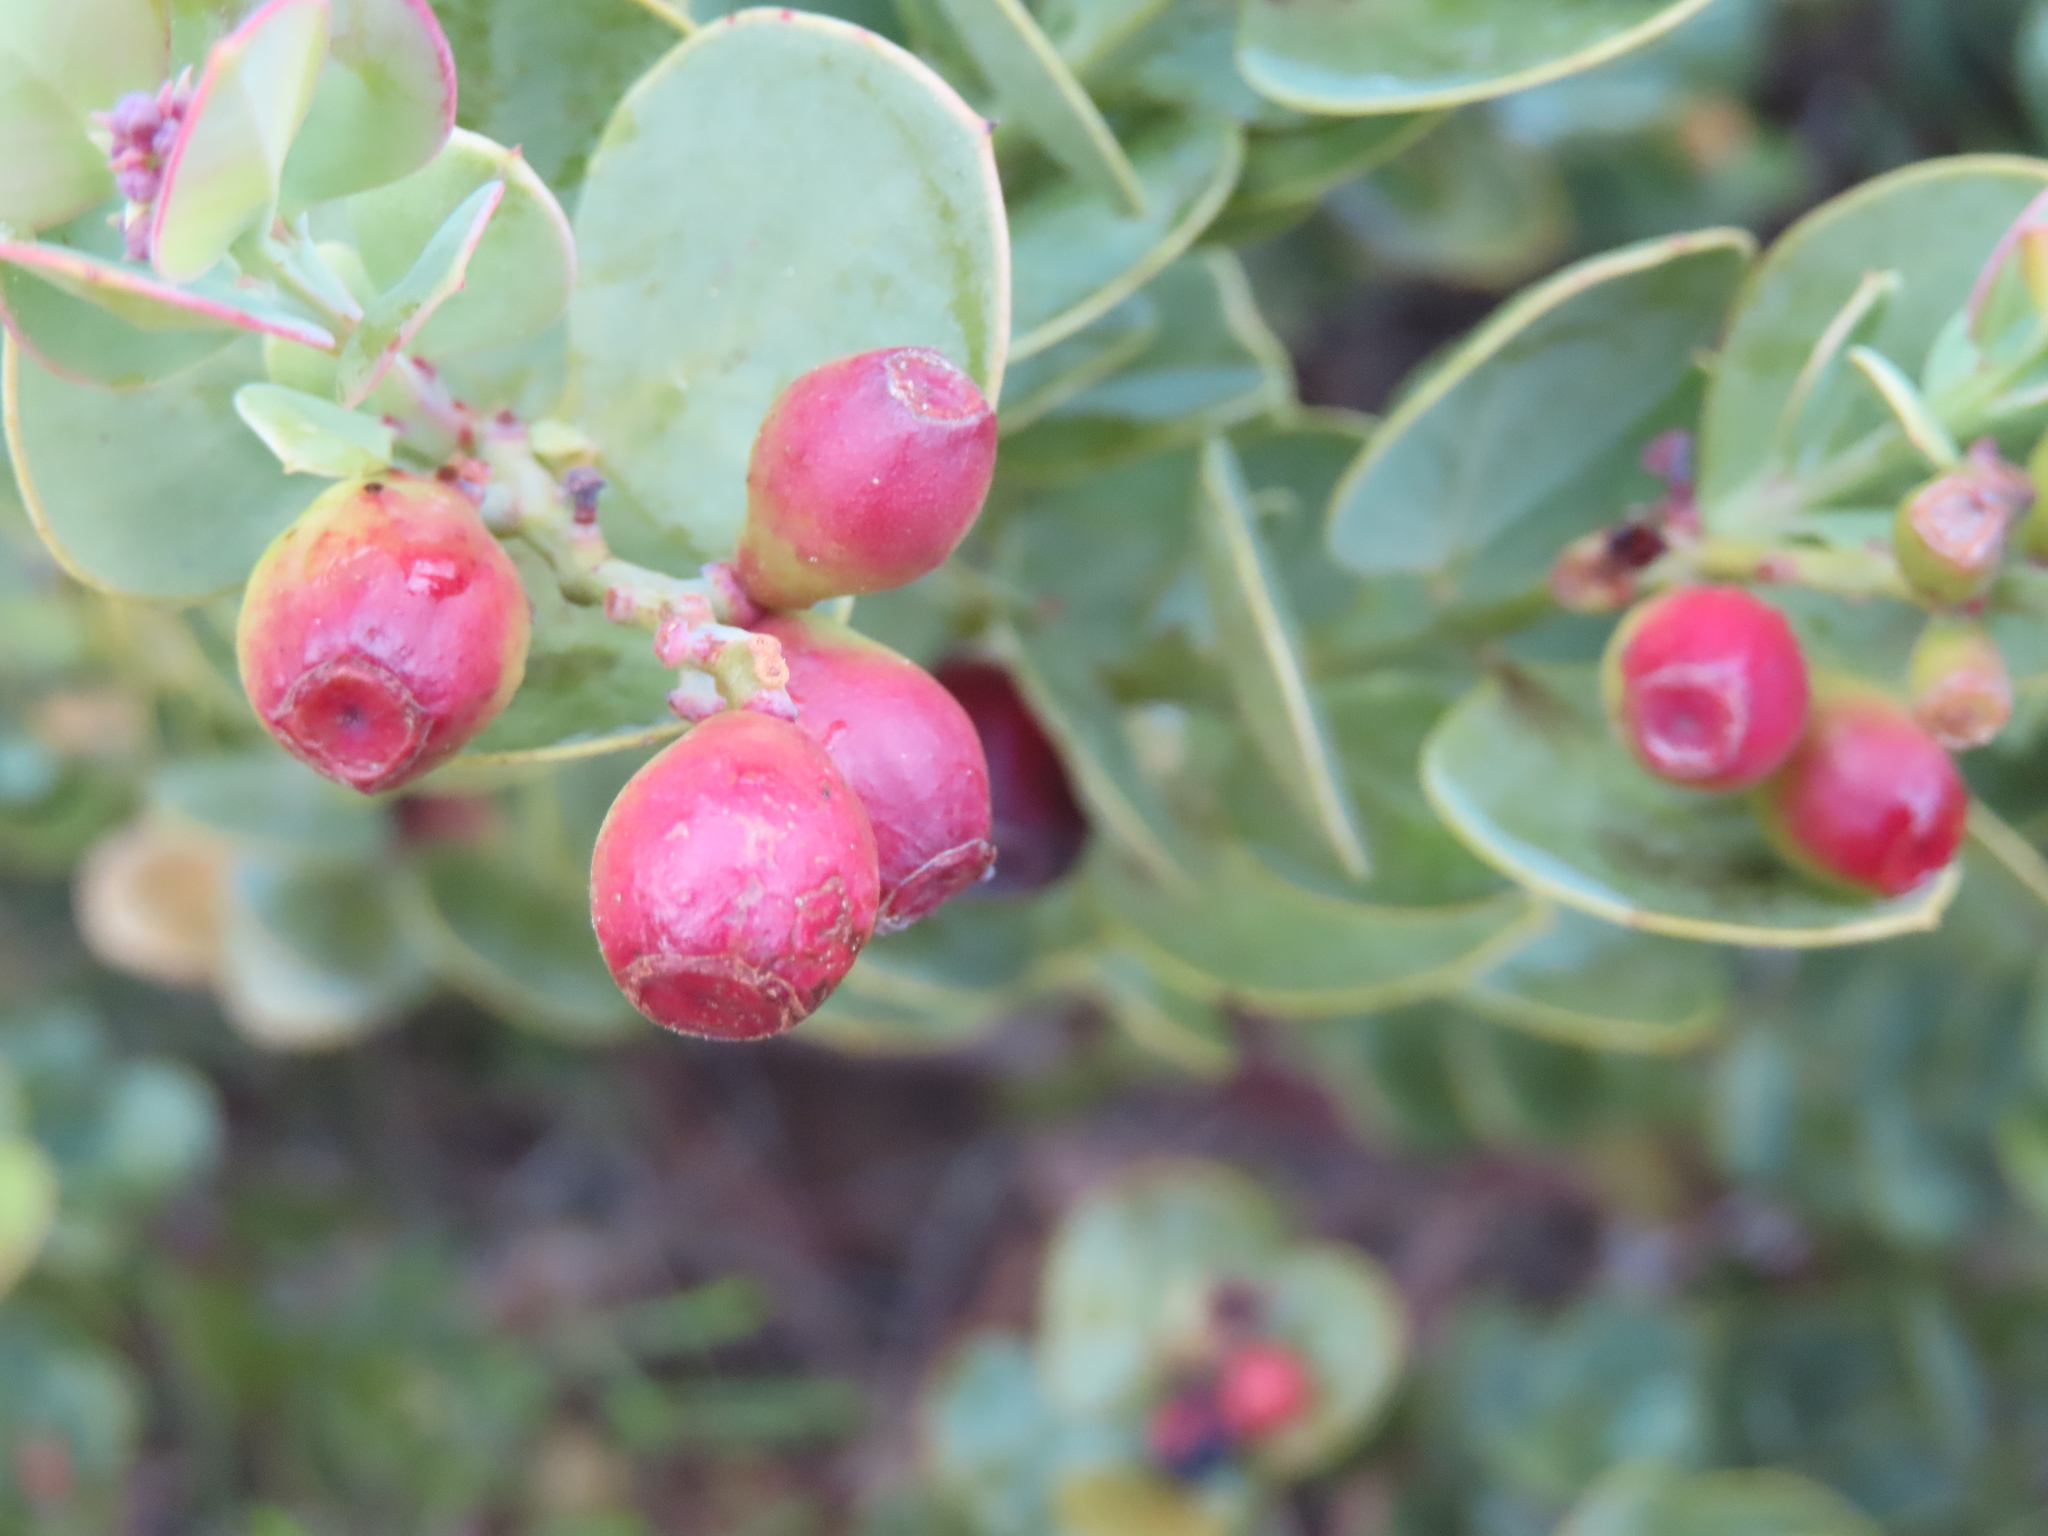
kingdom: Plantae
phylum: Tracheophyta
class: Magnoliopsida
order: Santalales
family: Santalaceae
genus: Osyris
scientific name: Osyris compressa
